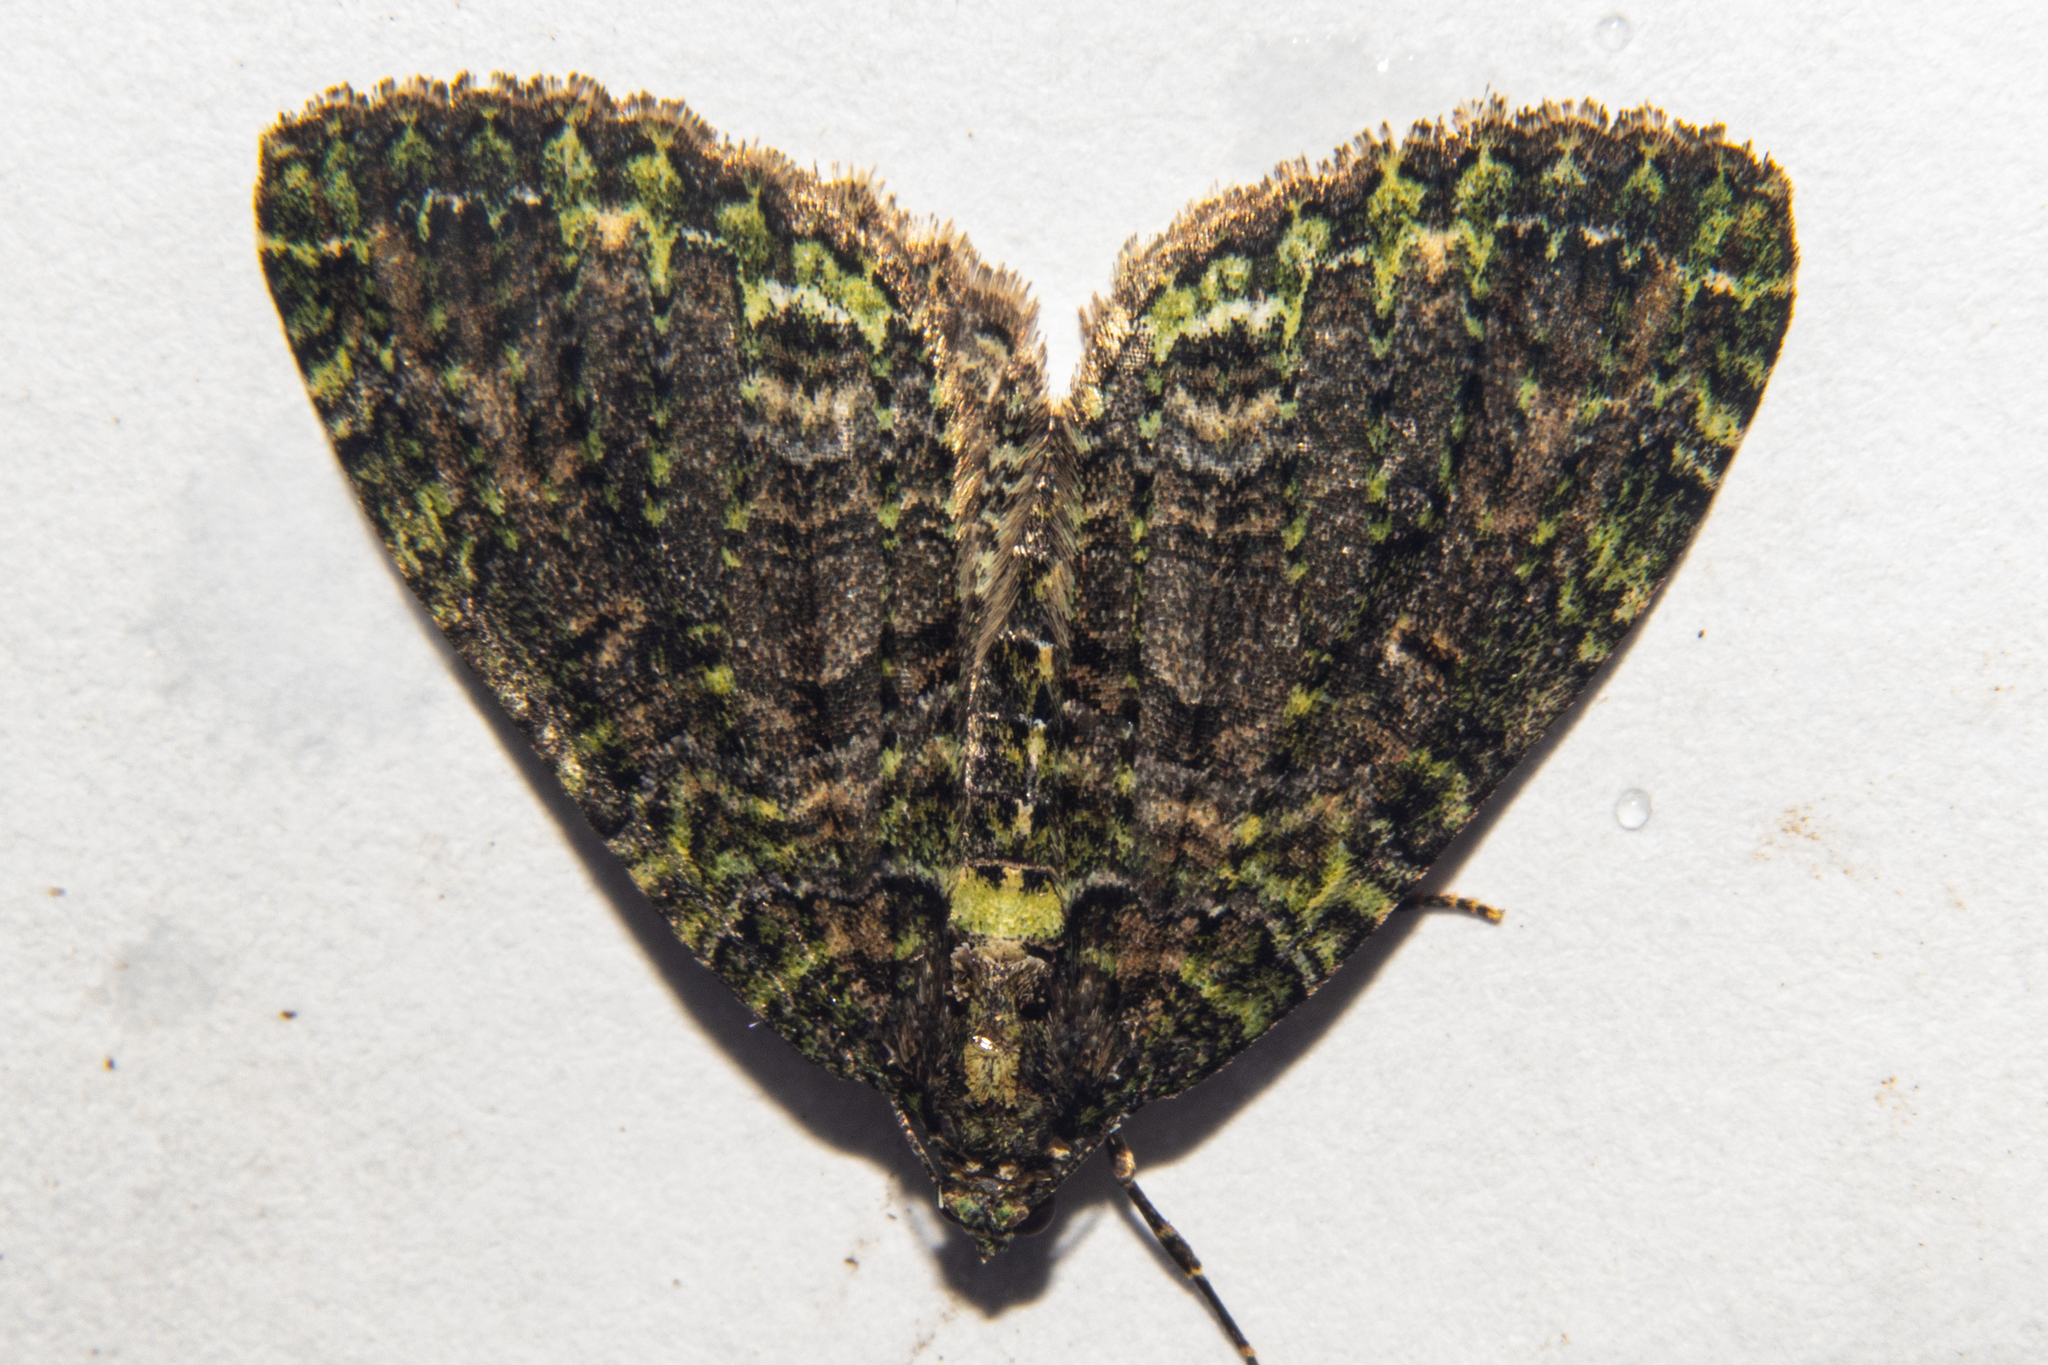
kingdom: Animalia
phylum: Arthropoda
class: Insecta
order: Lepidoptera
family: Geometridae
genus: Austrocidaria
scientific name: Austrocidaria similata
